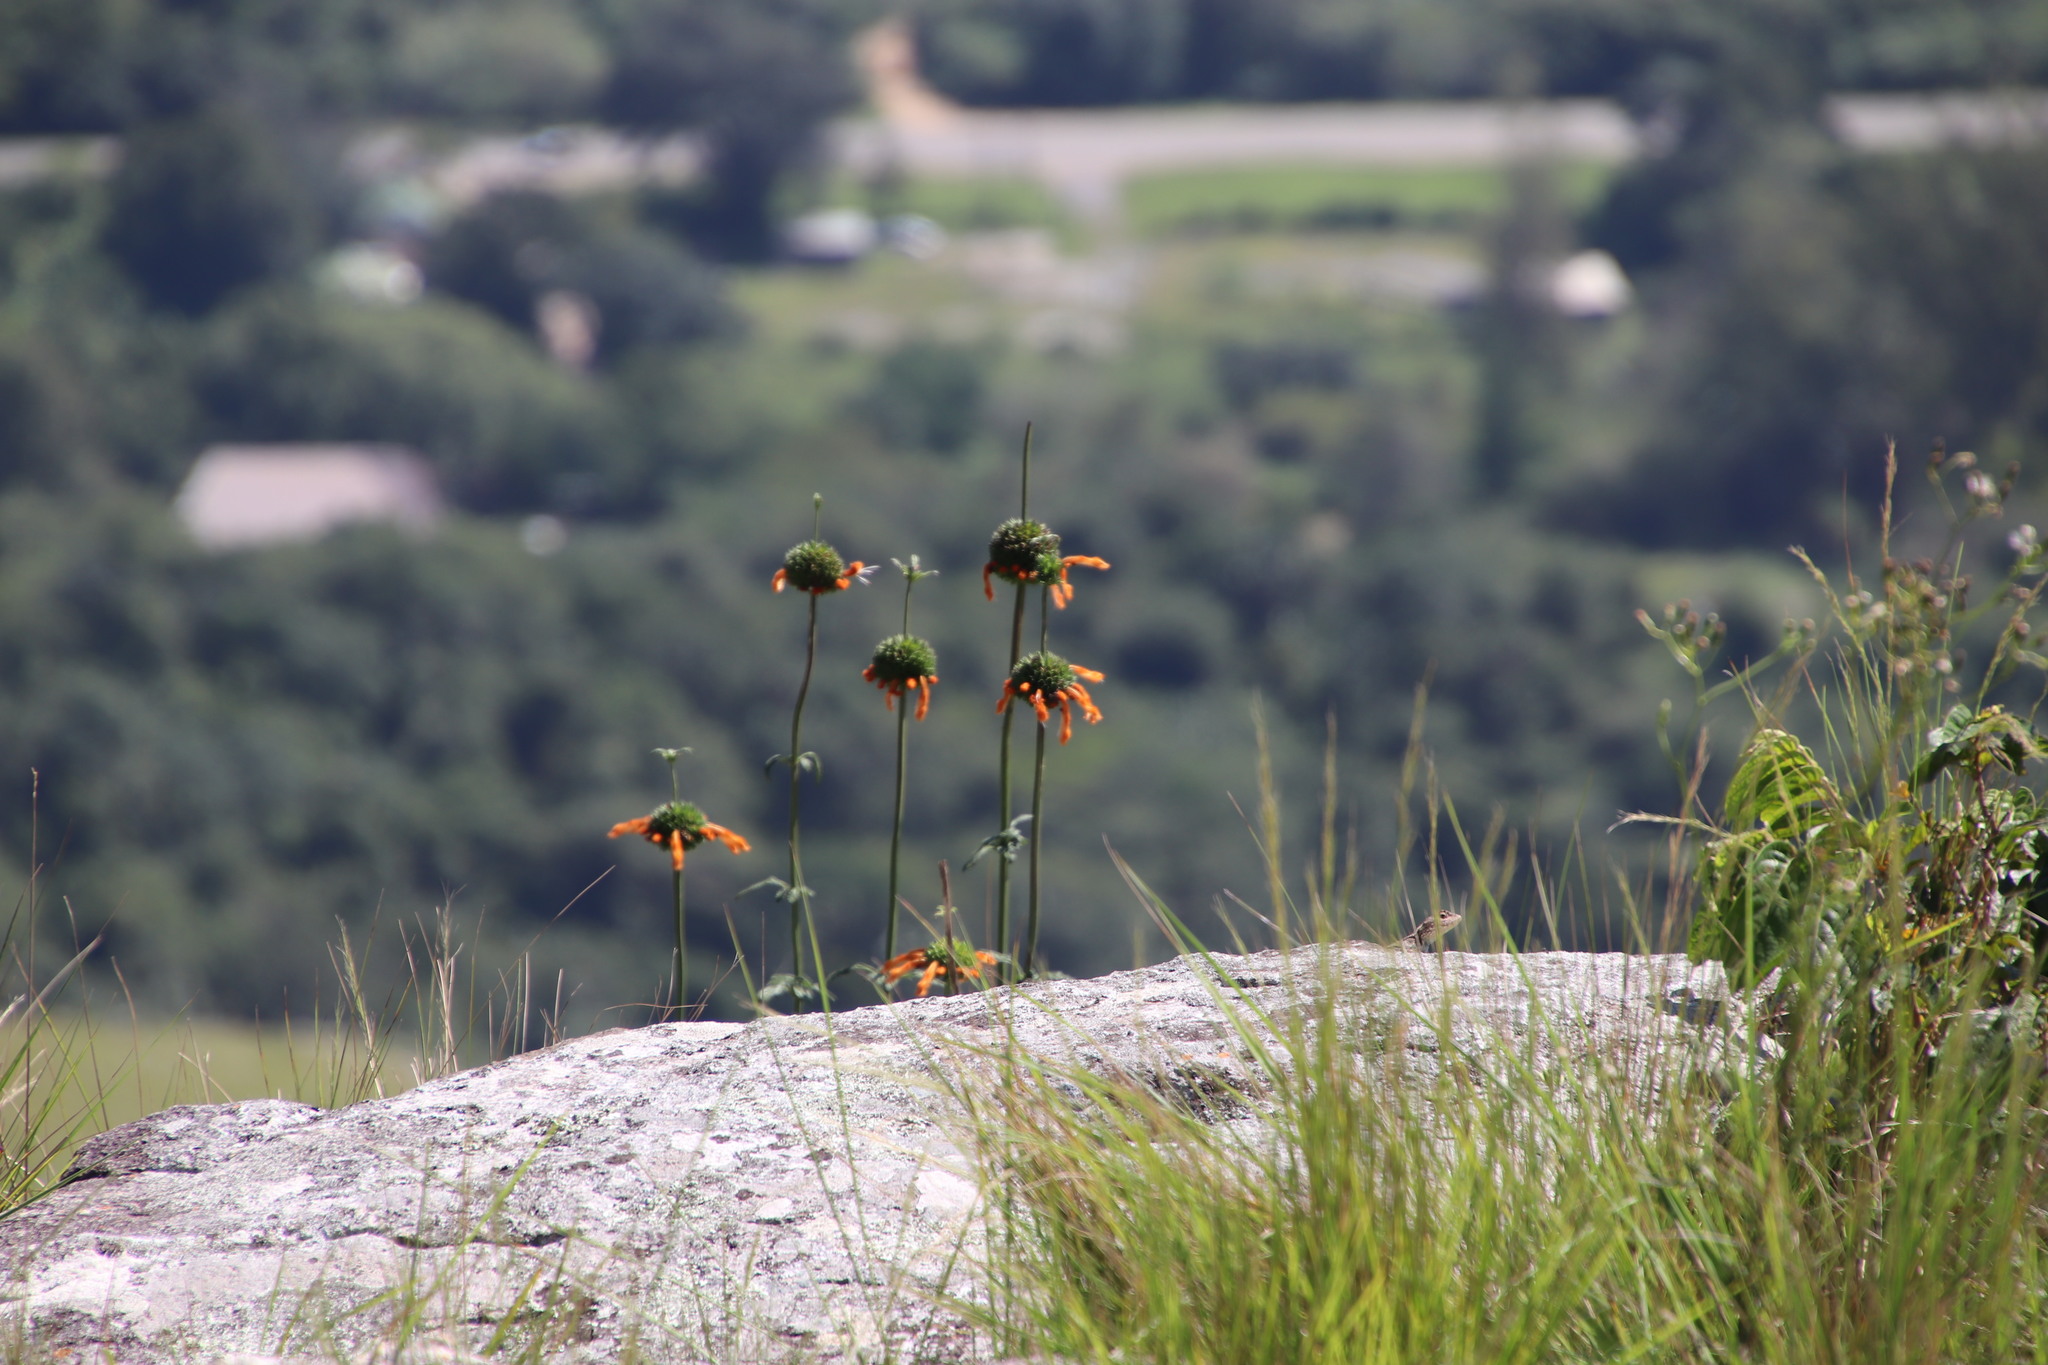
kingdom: Plantae
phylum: Tracheophyta
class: Magnoliopsida
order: Lamiales
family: Lamiaceae
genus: Leonotis
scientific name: Leonotis ocymifolia
